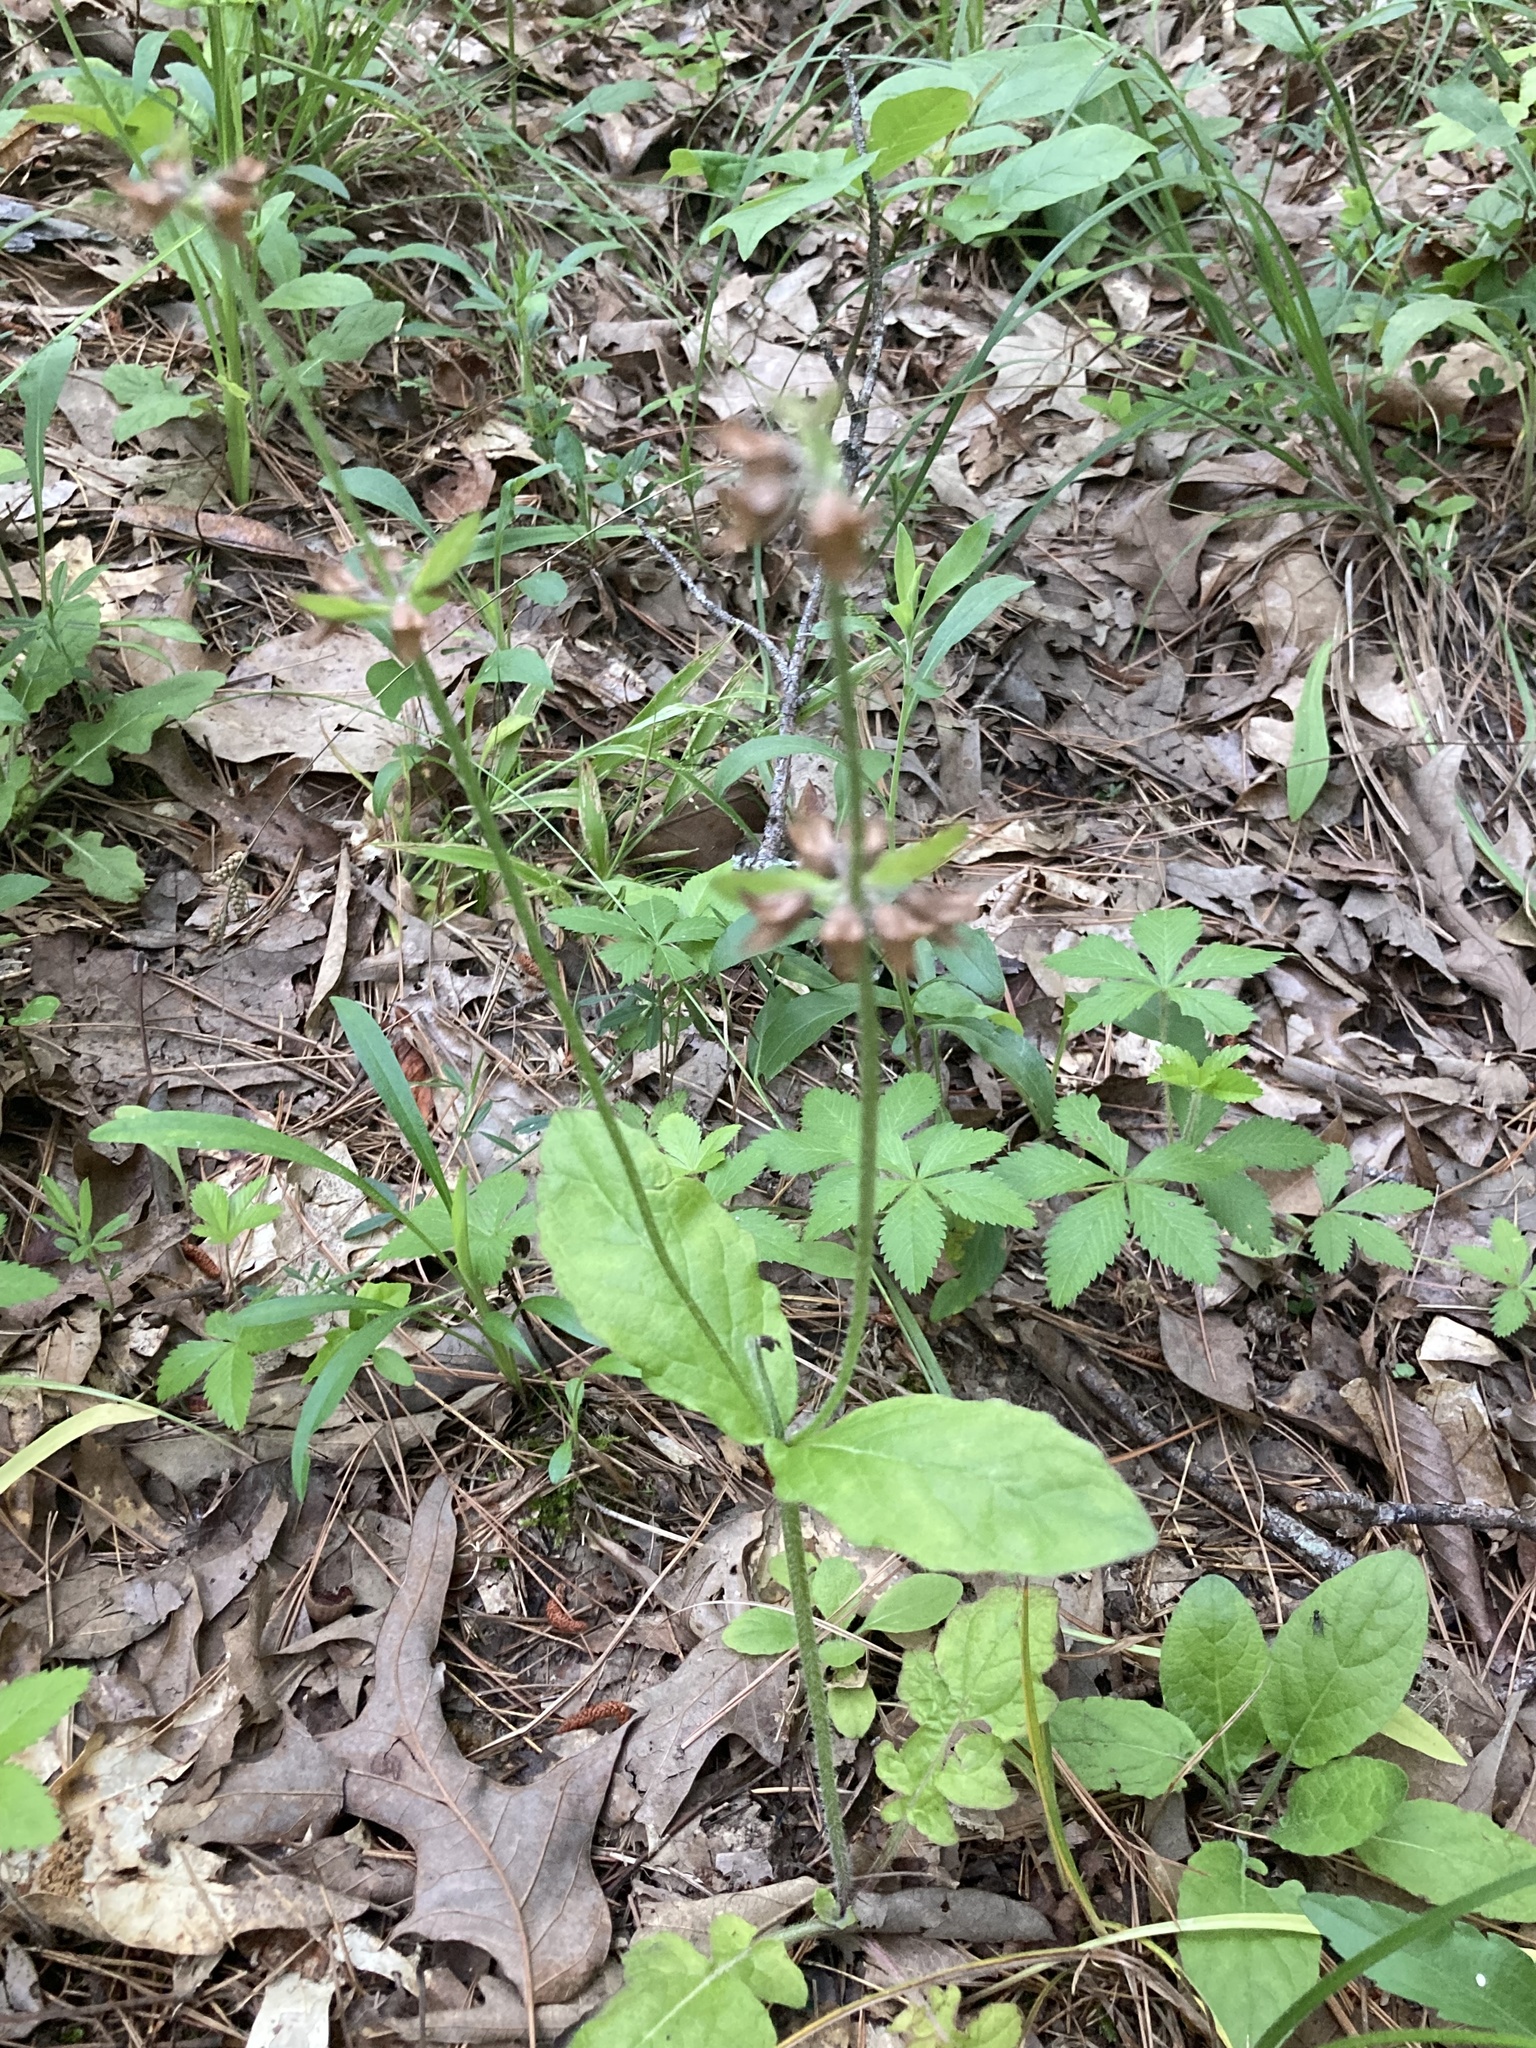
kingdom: Plantae
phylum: Tracheophyta
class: Magnoliopsida
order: Lamiales
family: Lamiaceae
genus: Salvia
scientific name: Salvia lyrata
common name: Cancerweed
